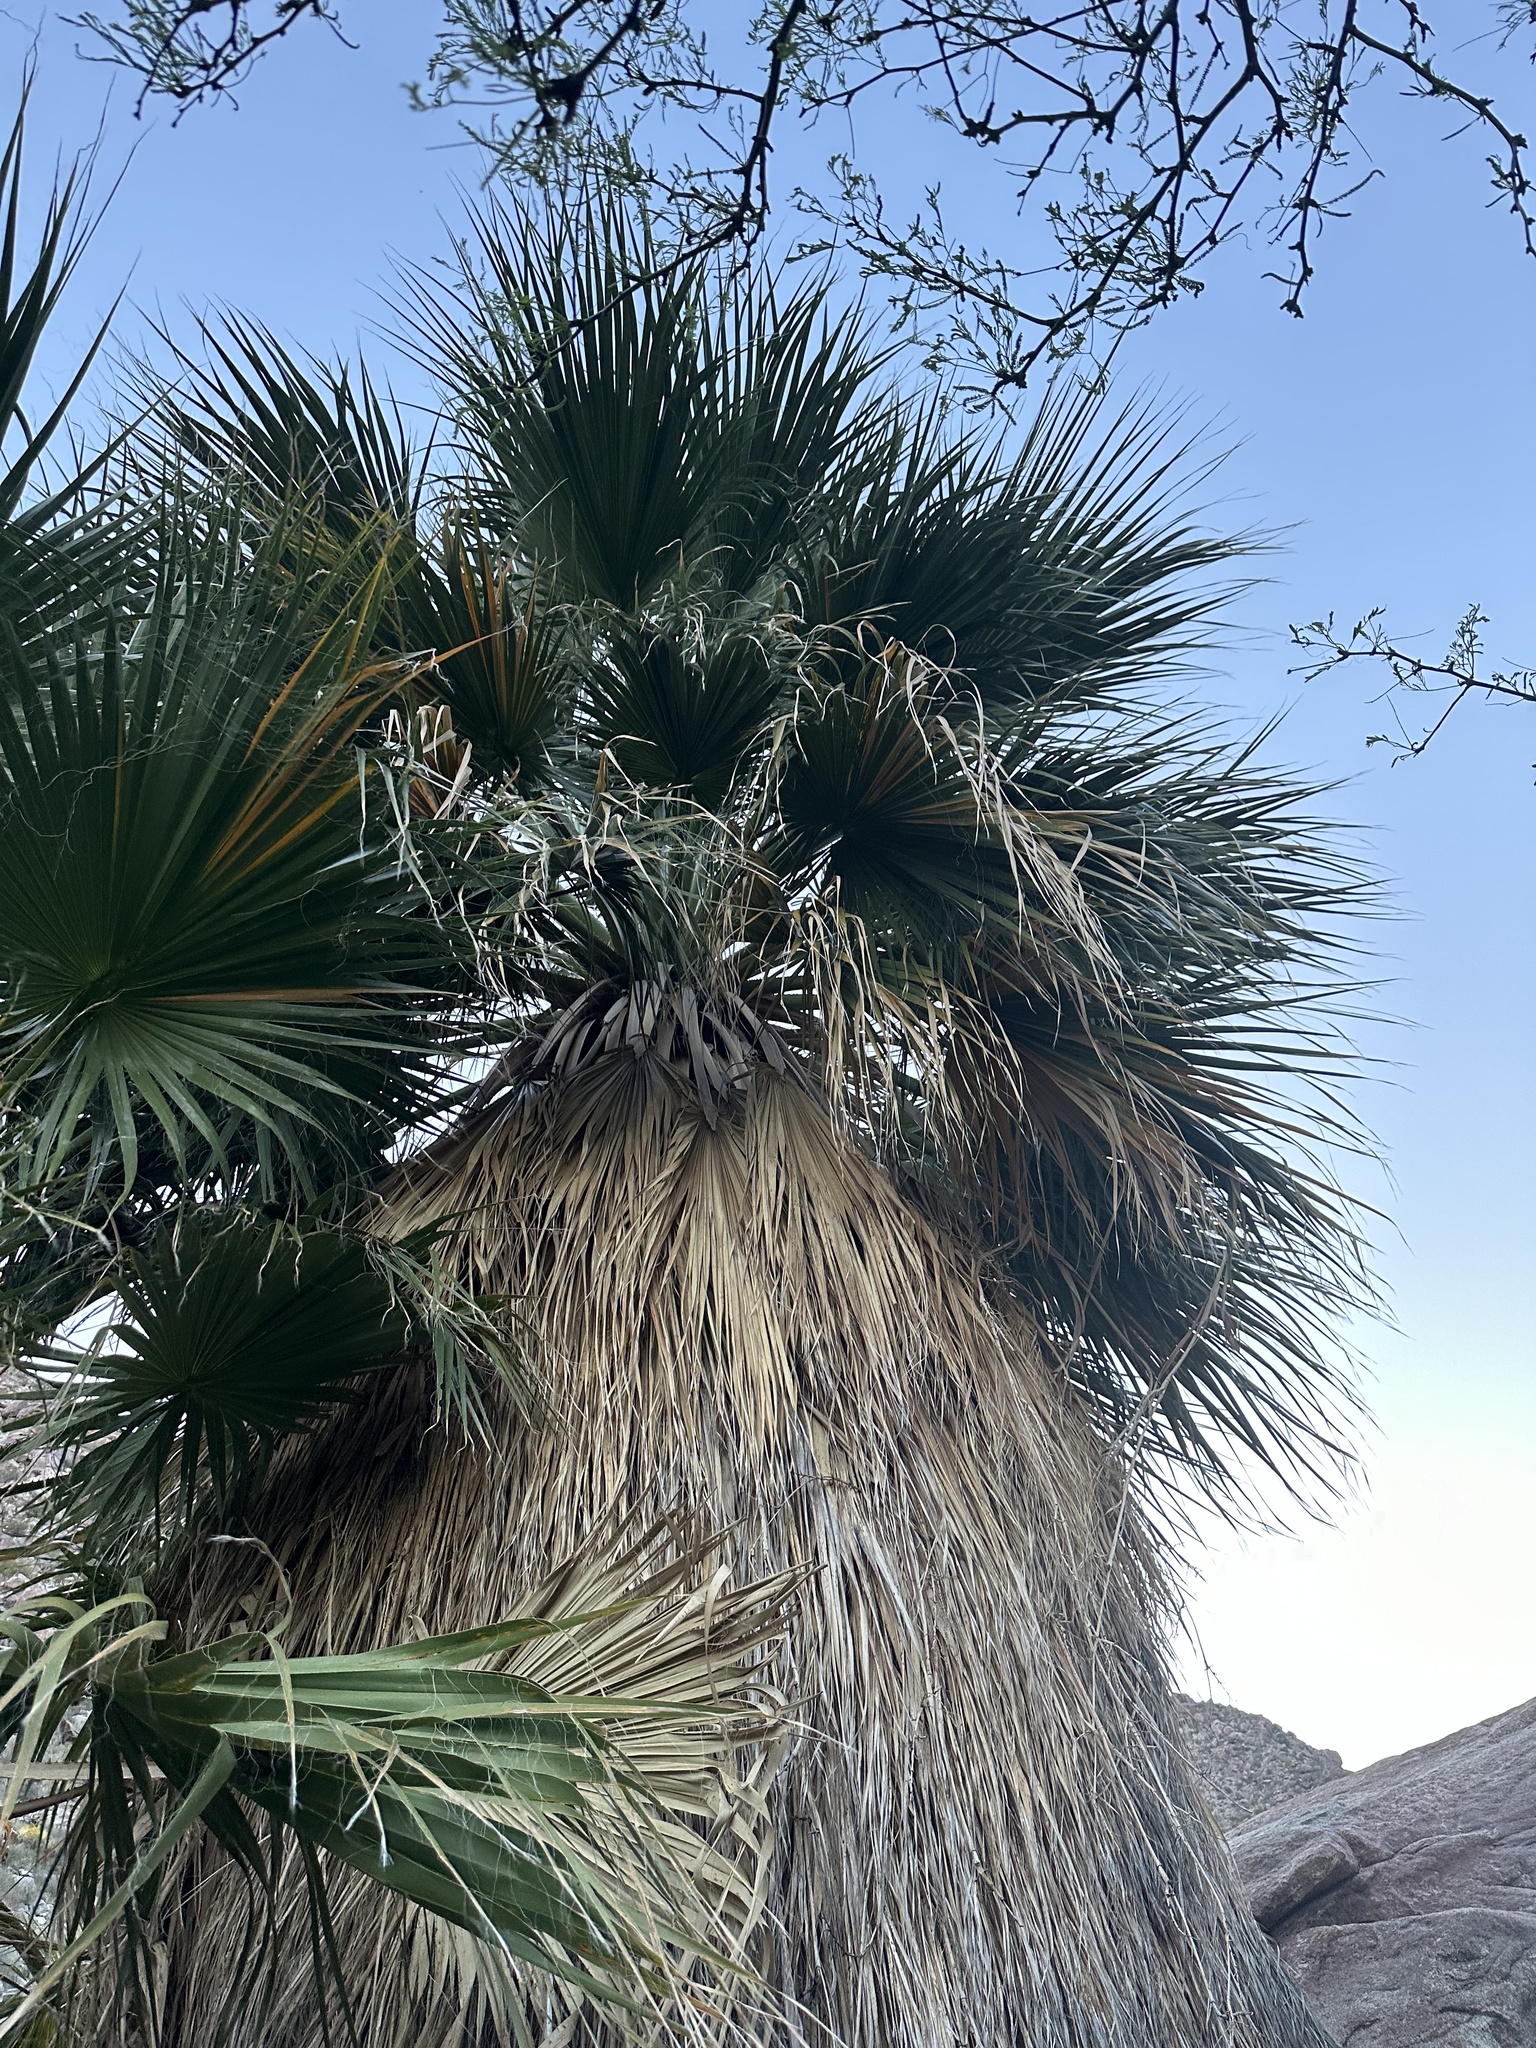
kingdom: Plantae
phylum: Tracheophyta
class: Liliopsida
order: Arecales
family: Arecaceae
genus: Washingtonia
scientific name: Washingtonia filifera
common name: California fan palm
